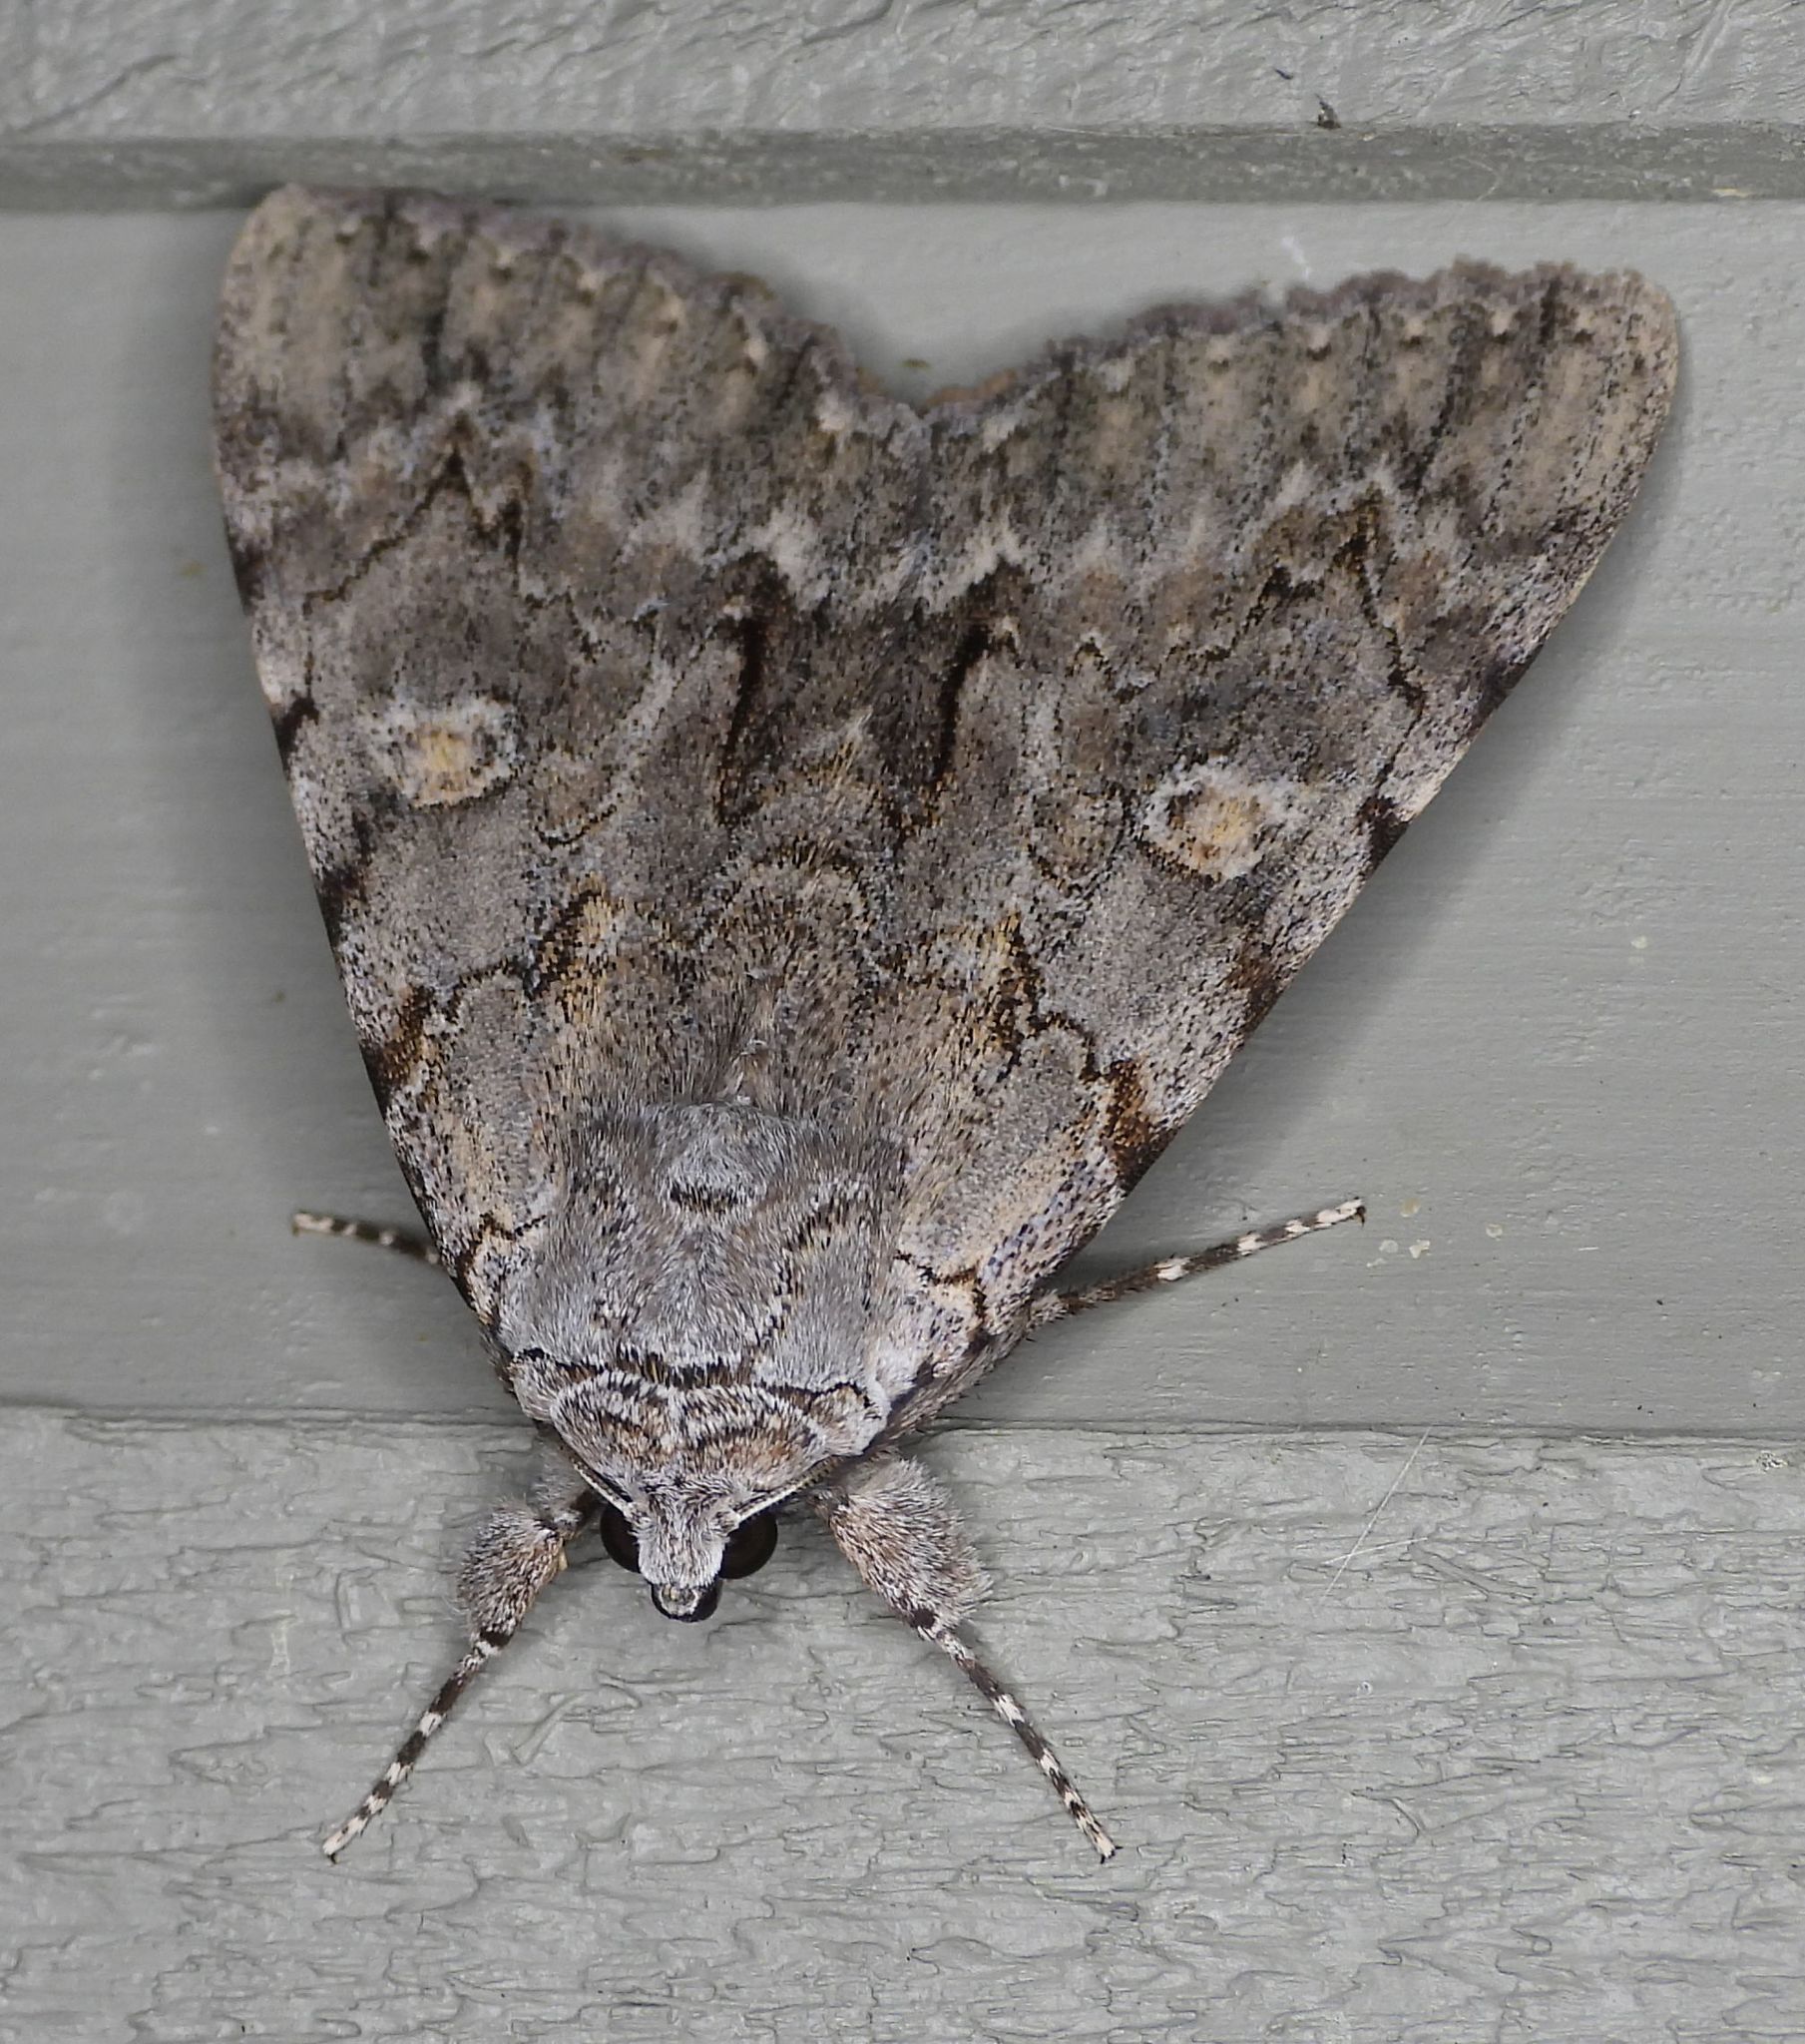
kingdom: Animalia
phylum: Arthropoda
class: Insecta
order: Lepidoptera
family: Erebidae
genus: Catocala
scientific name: Catocala habilis
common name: Habilis underwing
